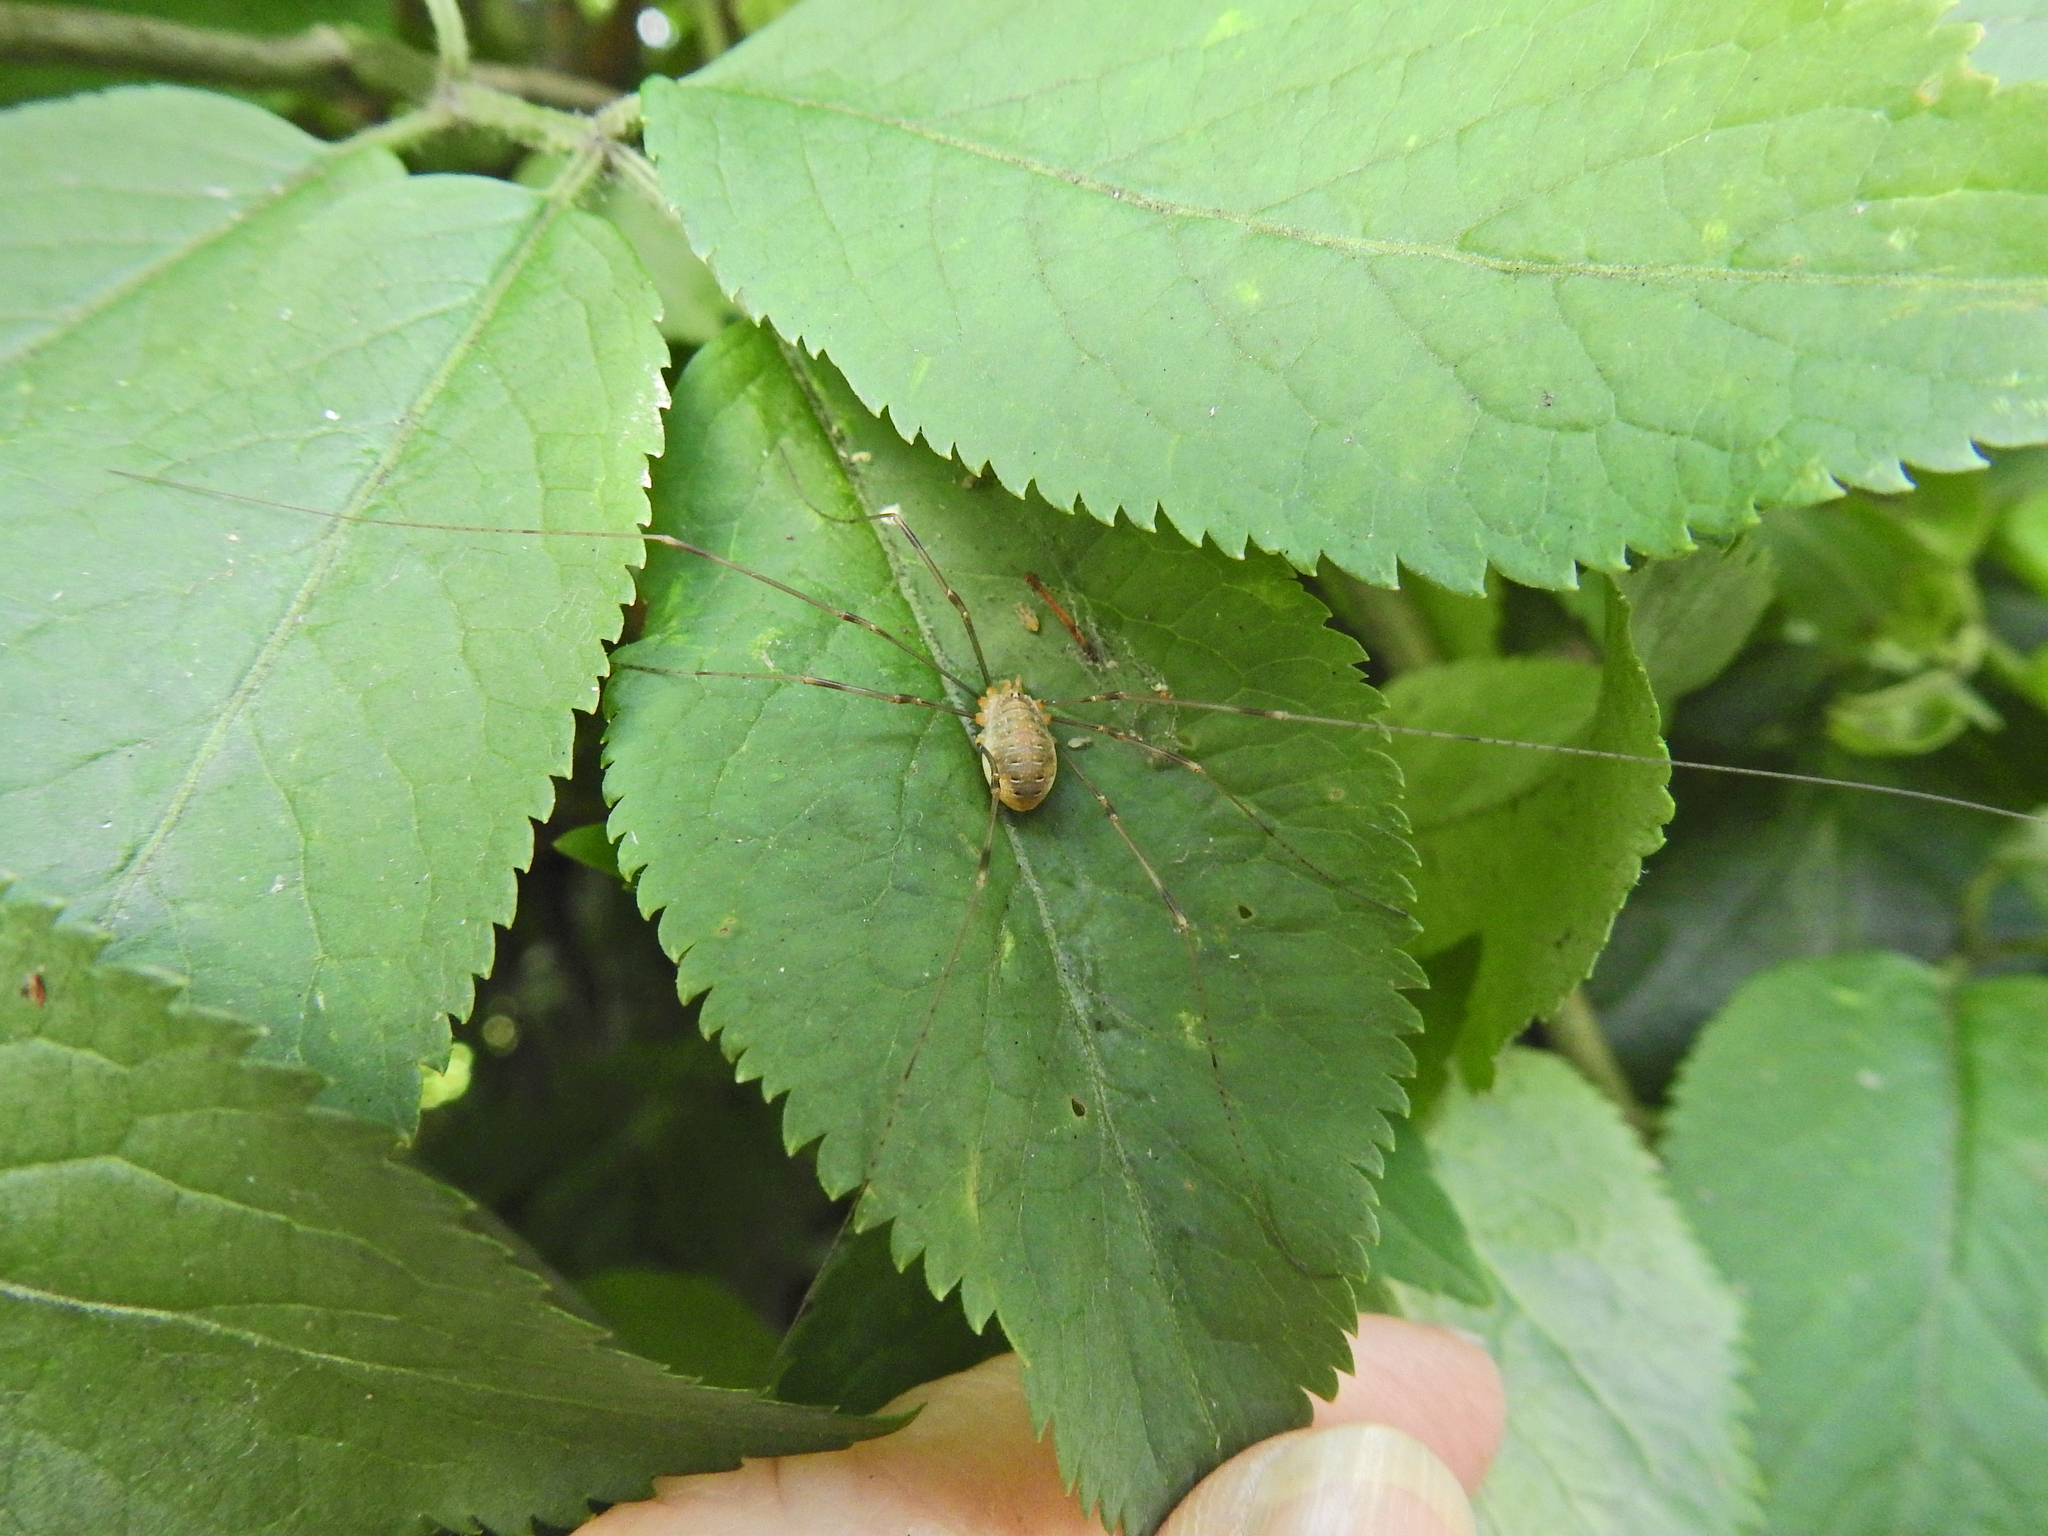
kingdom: Animalia
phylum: Arthropoda
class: Arachnida
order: Opiliones
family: Phalangiidae
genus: Opilio
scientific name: Opilio canestrinii
